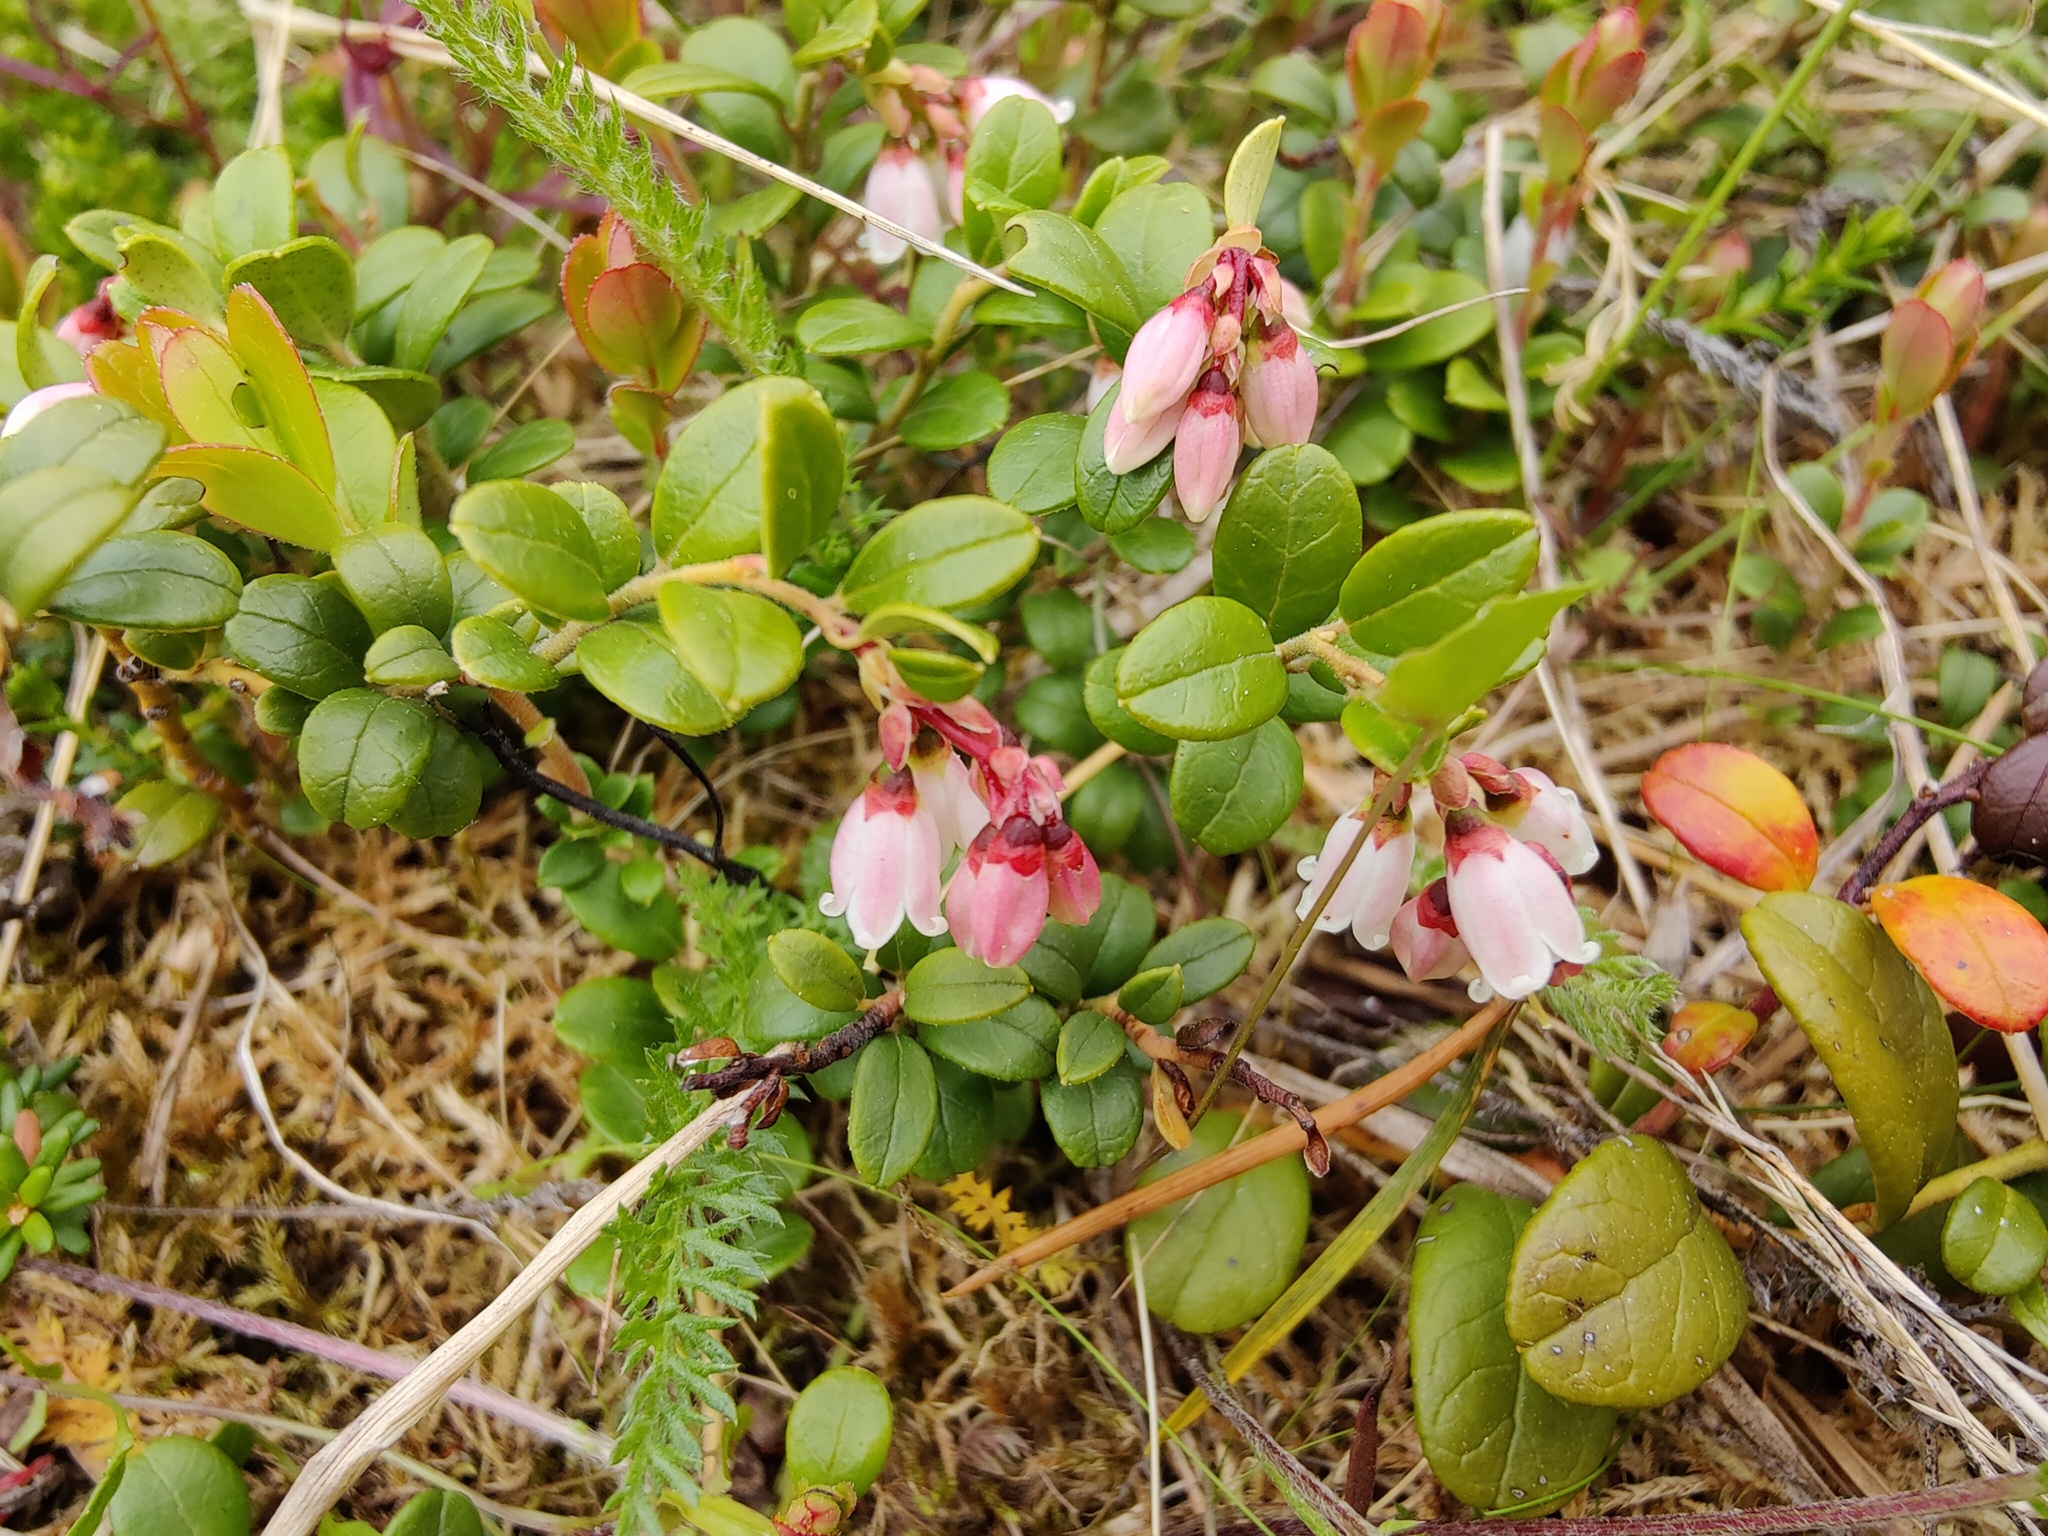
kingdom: Plantae
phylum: Tracheophyta
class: Magnoliopsida
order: Ericales
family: Ericaceae
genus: Vaccinium
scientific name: Vaccinium vitis-idaea
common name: Cowberry
